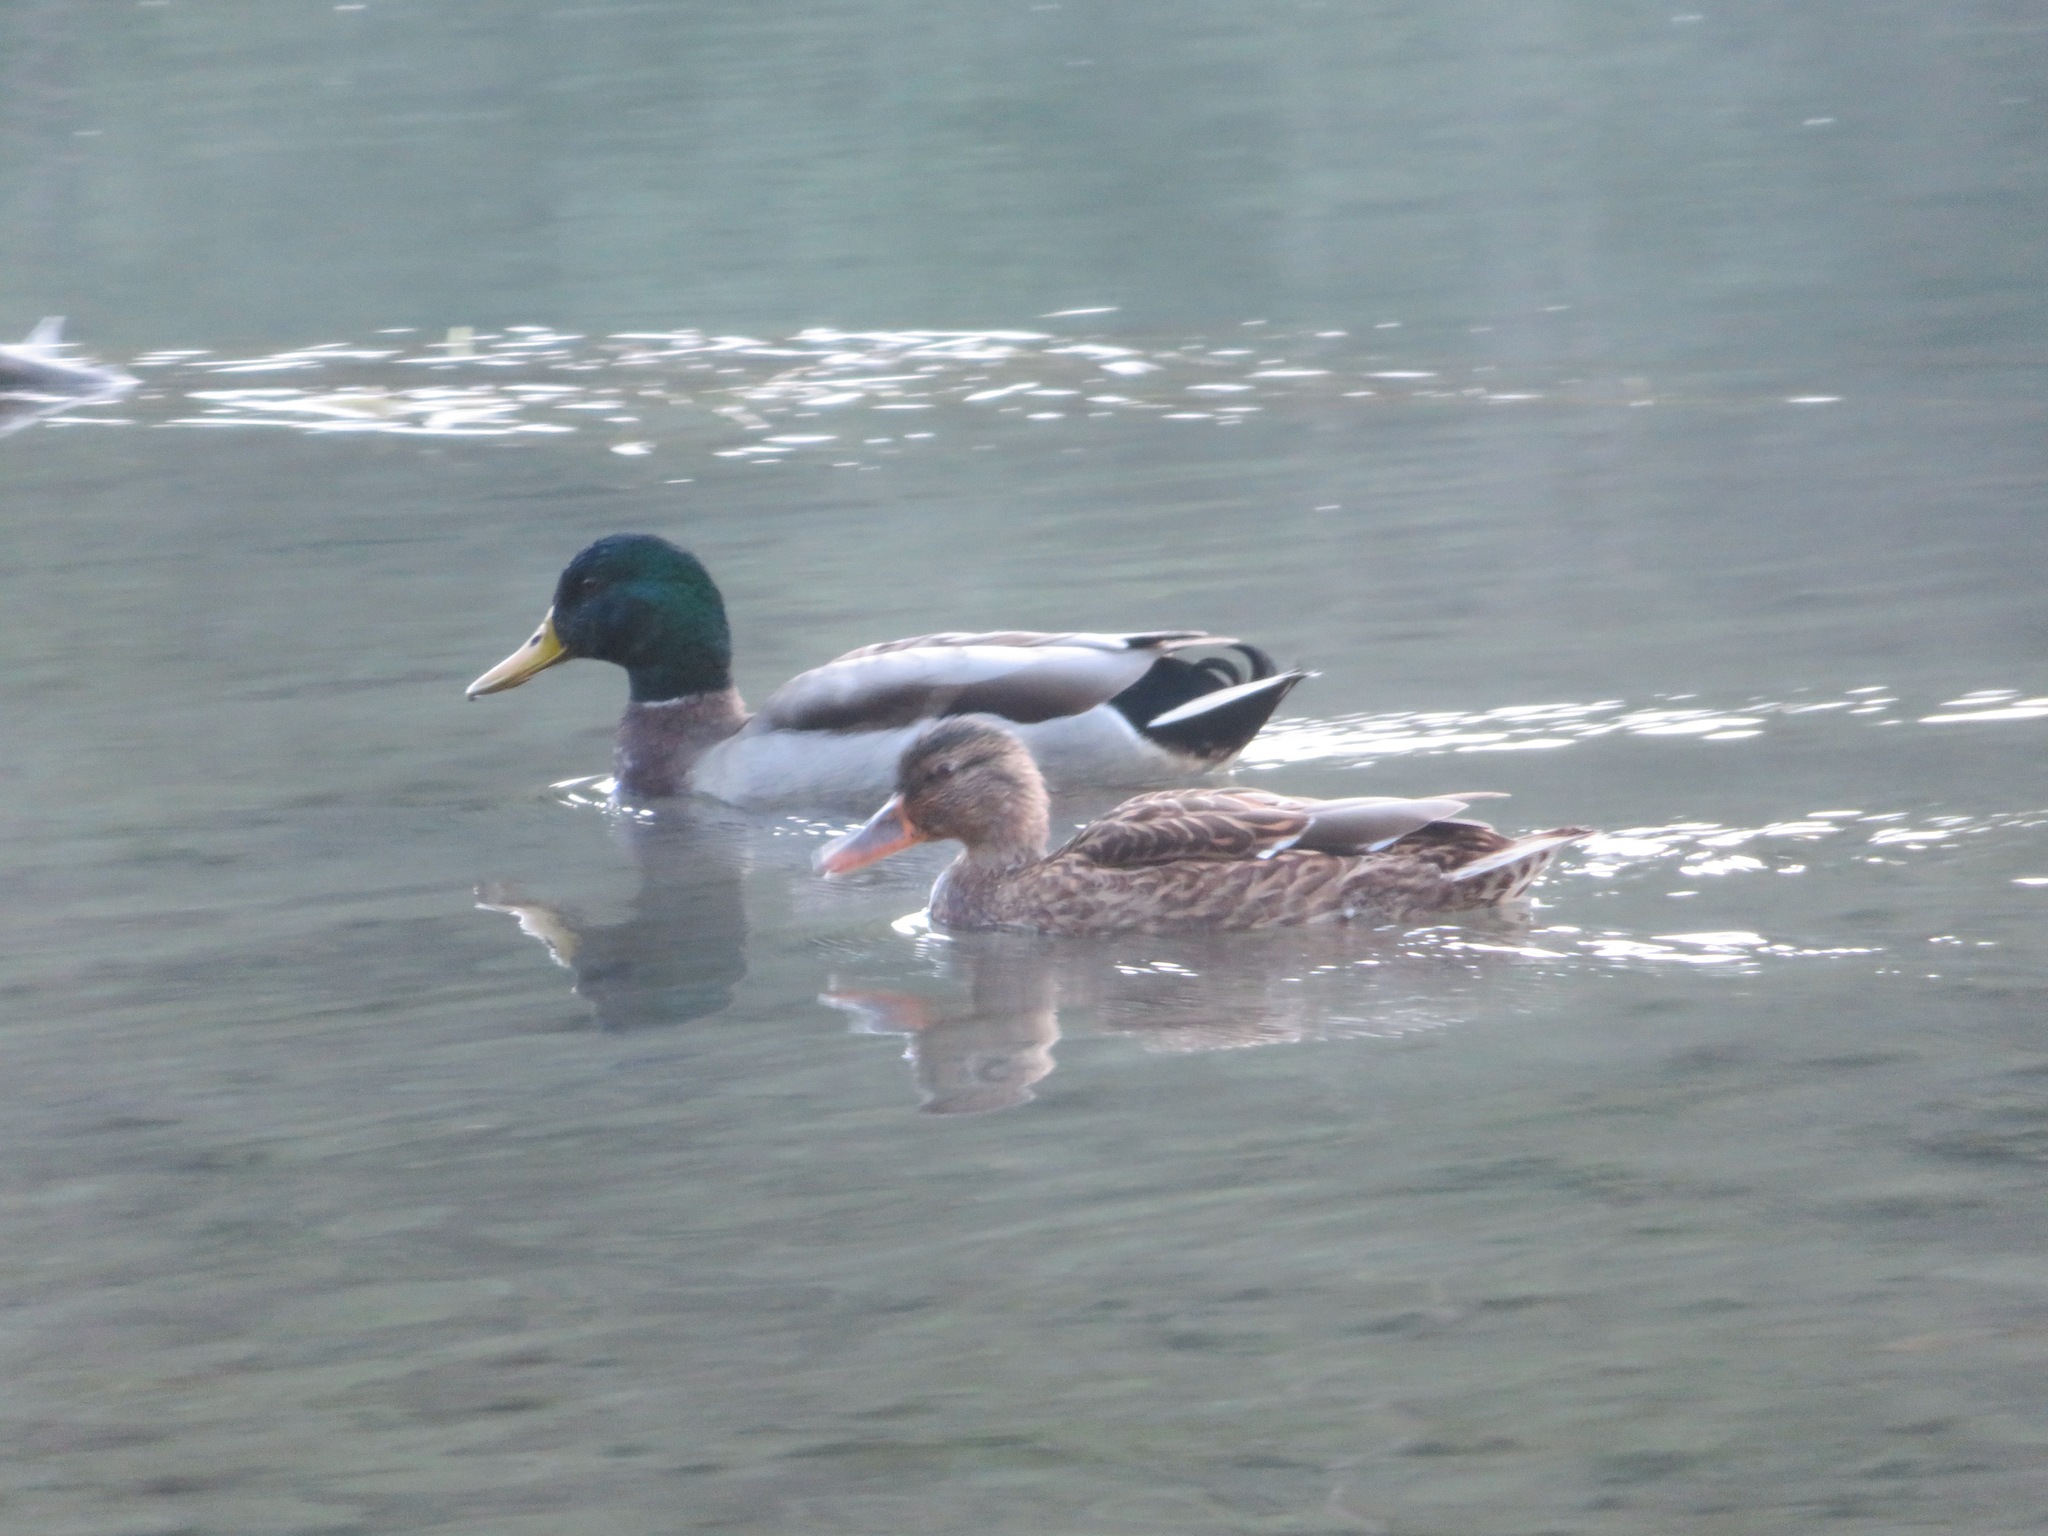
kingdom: Animalia
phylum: Chordata
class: Aves
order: Anseriformes
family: Anatidae
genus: Anas
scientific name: Anas platyrhynchos
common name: Mallard
